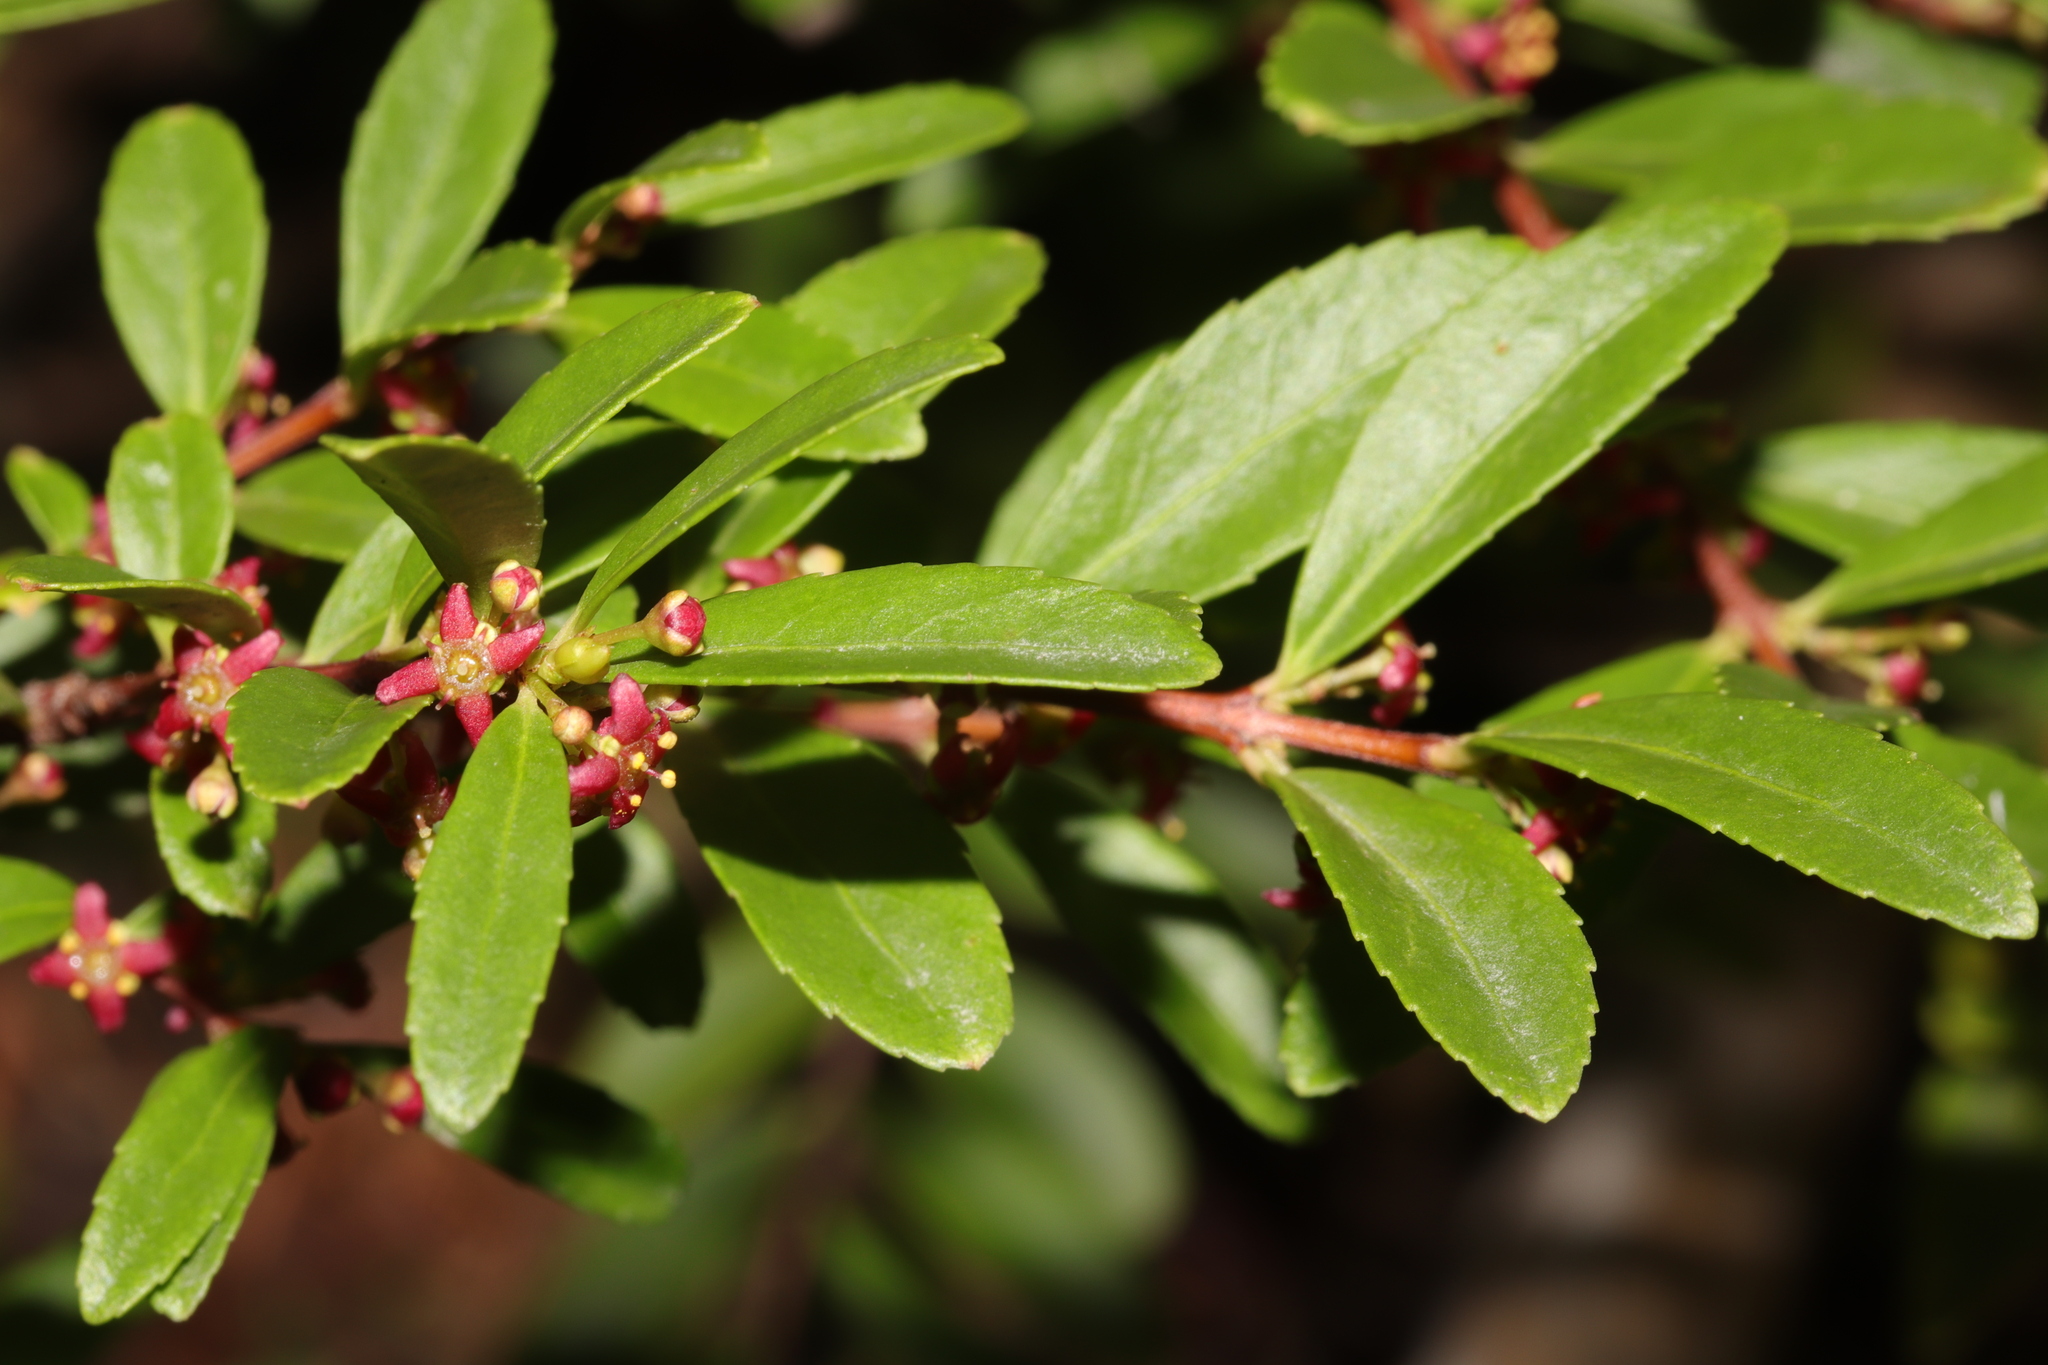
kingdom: Plantae
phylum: Tracheophyta
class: Magnoliopsida
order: Celastrales
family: Celastraceae
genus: Paxistima
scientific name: Paxistima myrsinites
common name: Mountain-lover
